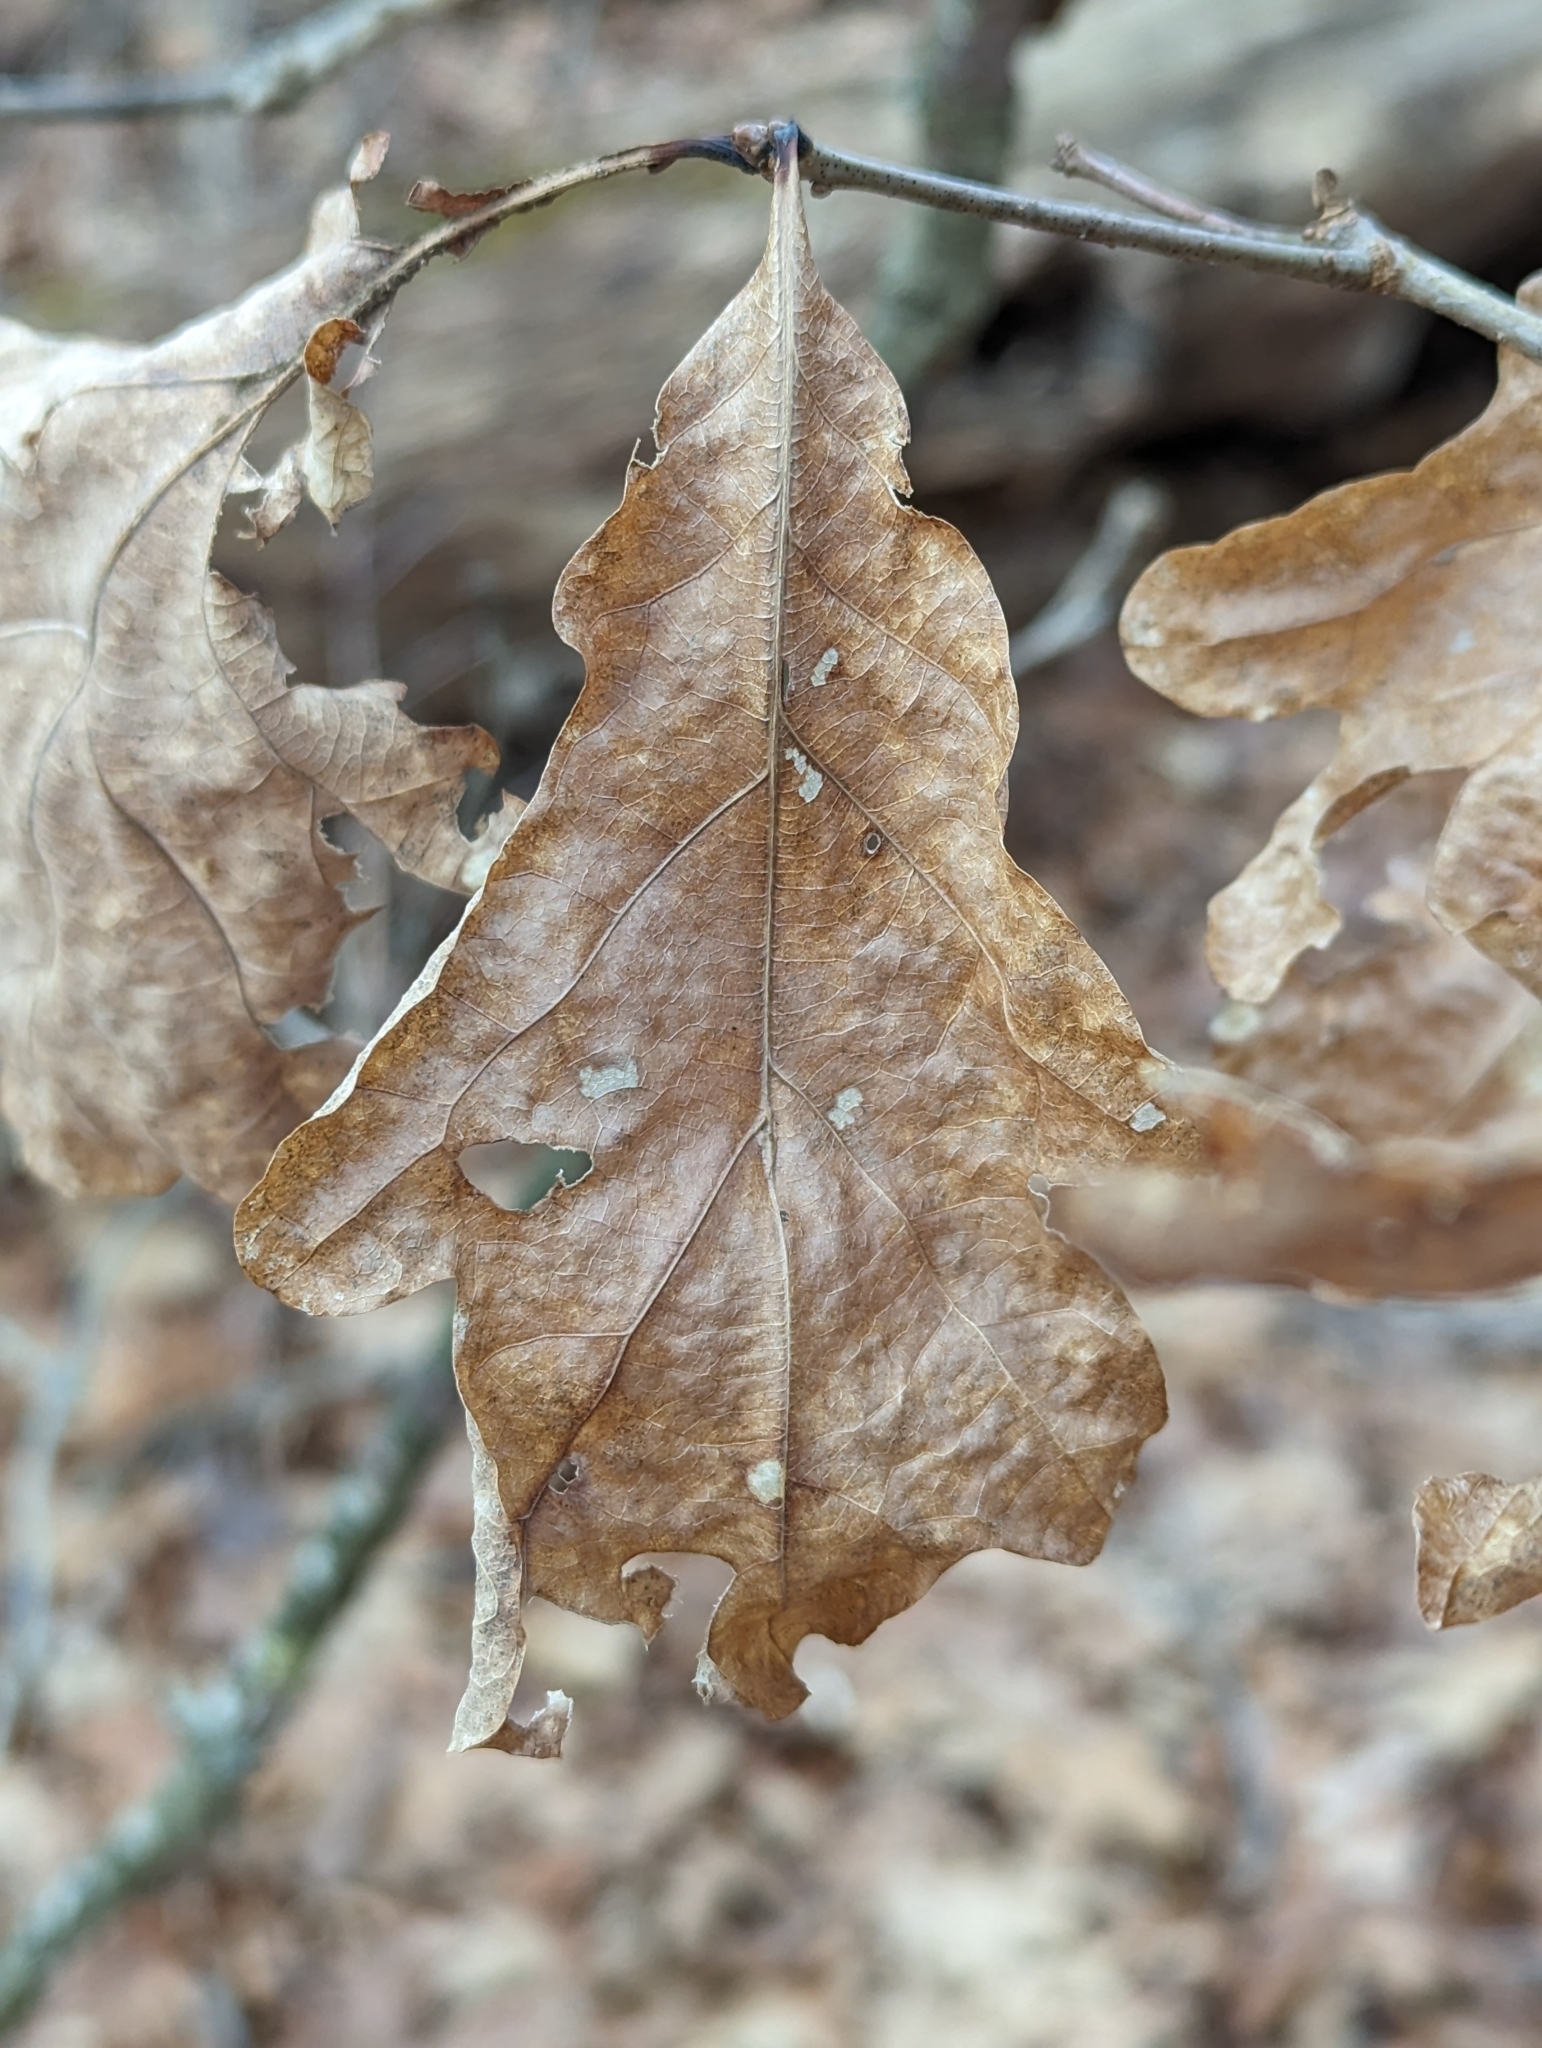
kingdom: Plantae
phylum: Tracheophyta
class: Magnoliopsida
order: Fagales
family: Fagaceae
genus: Quercus
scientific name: Quercus alba
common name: White oak
